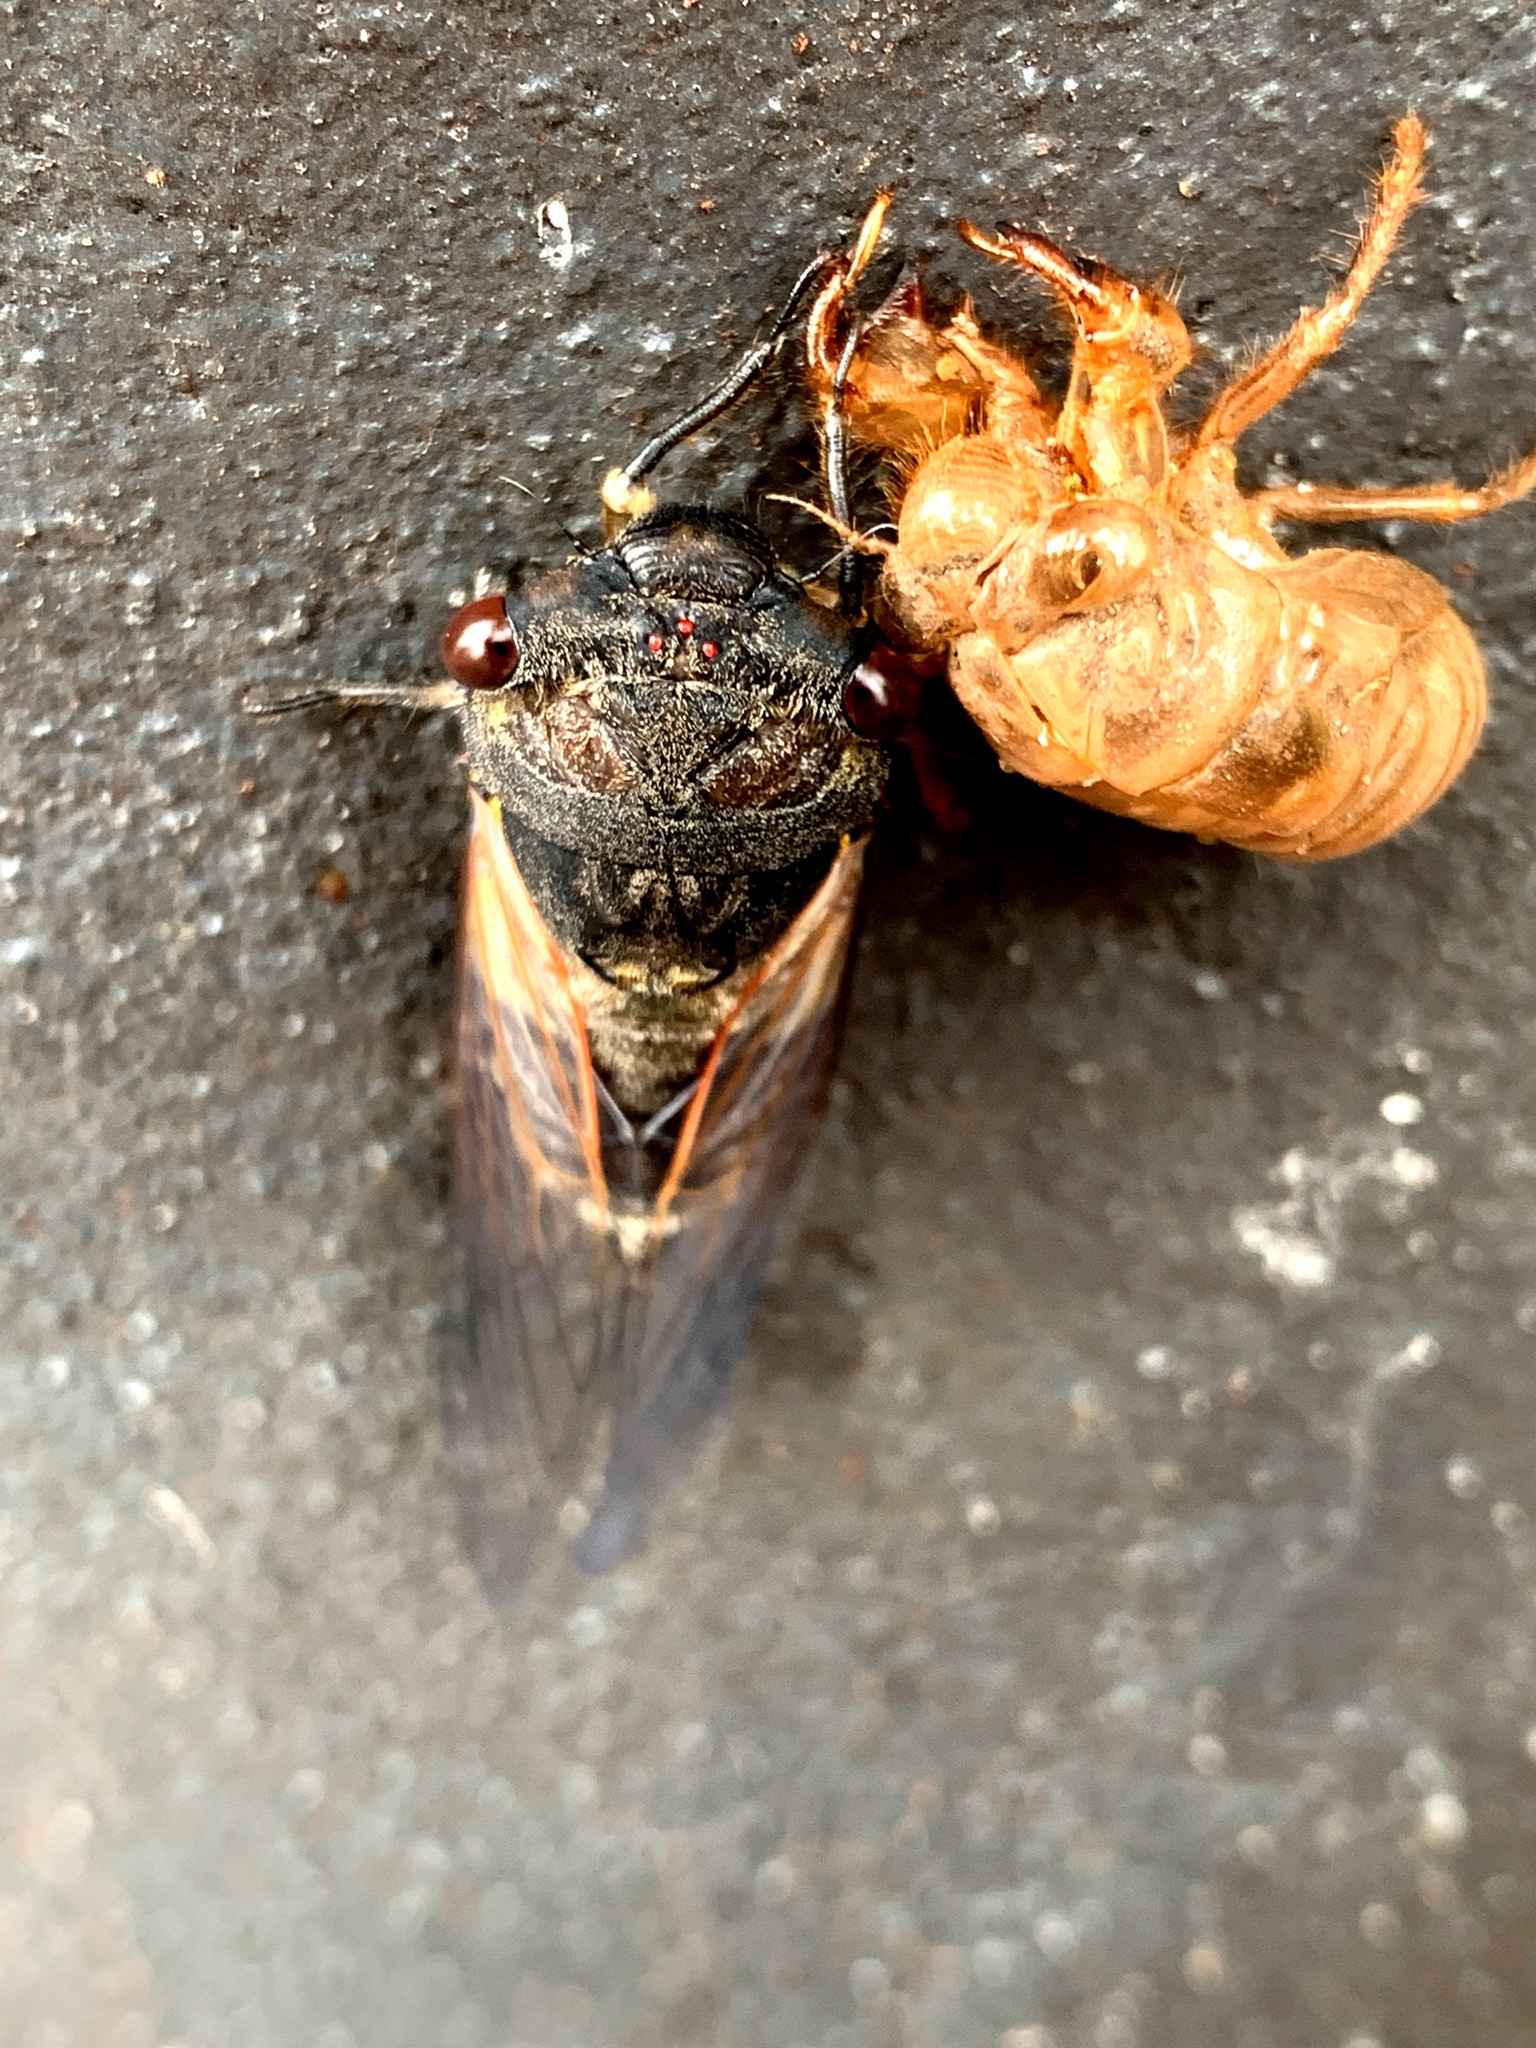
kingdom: Animalia
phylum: Arthropoda
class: Insecta
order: Hemiptera
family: Cicadidae
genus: Psaltoda
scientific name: Psaltoda plaga
